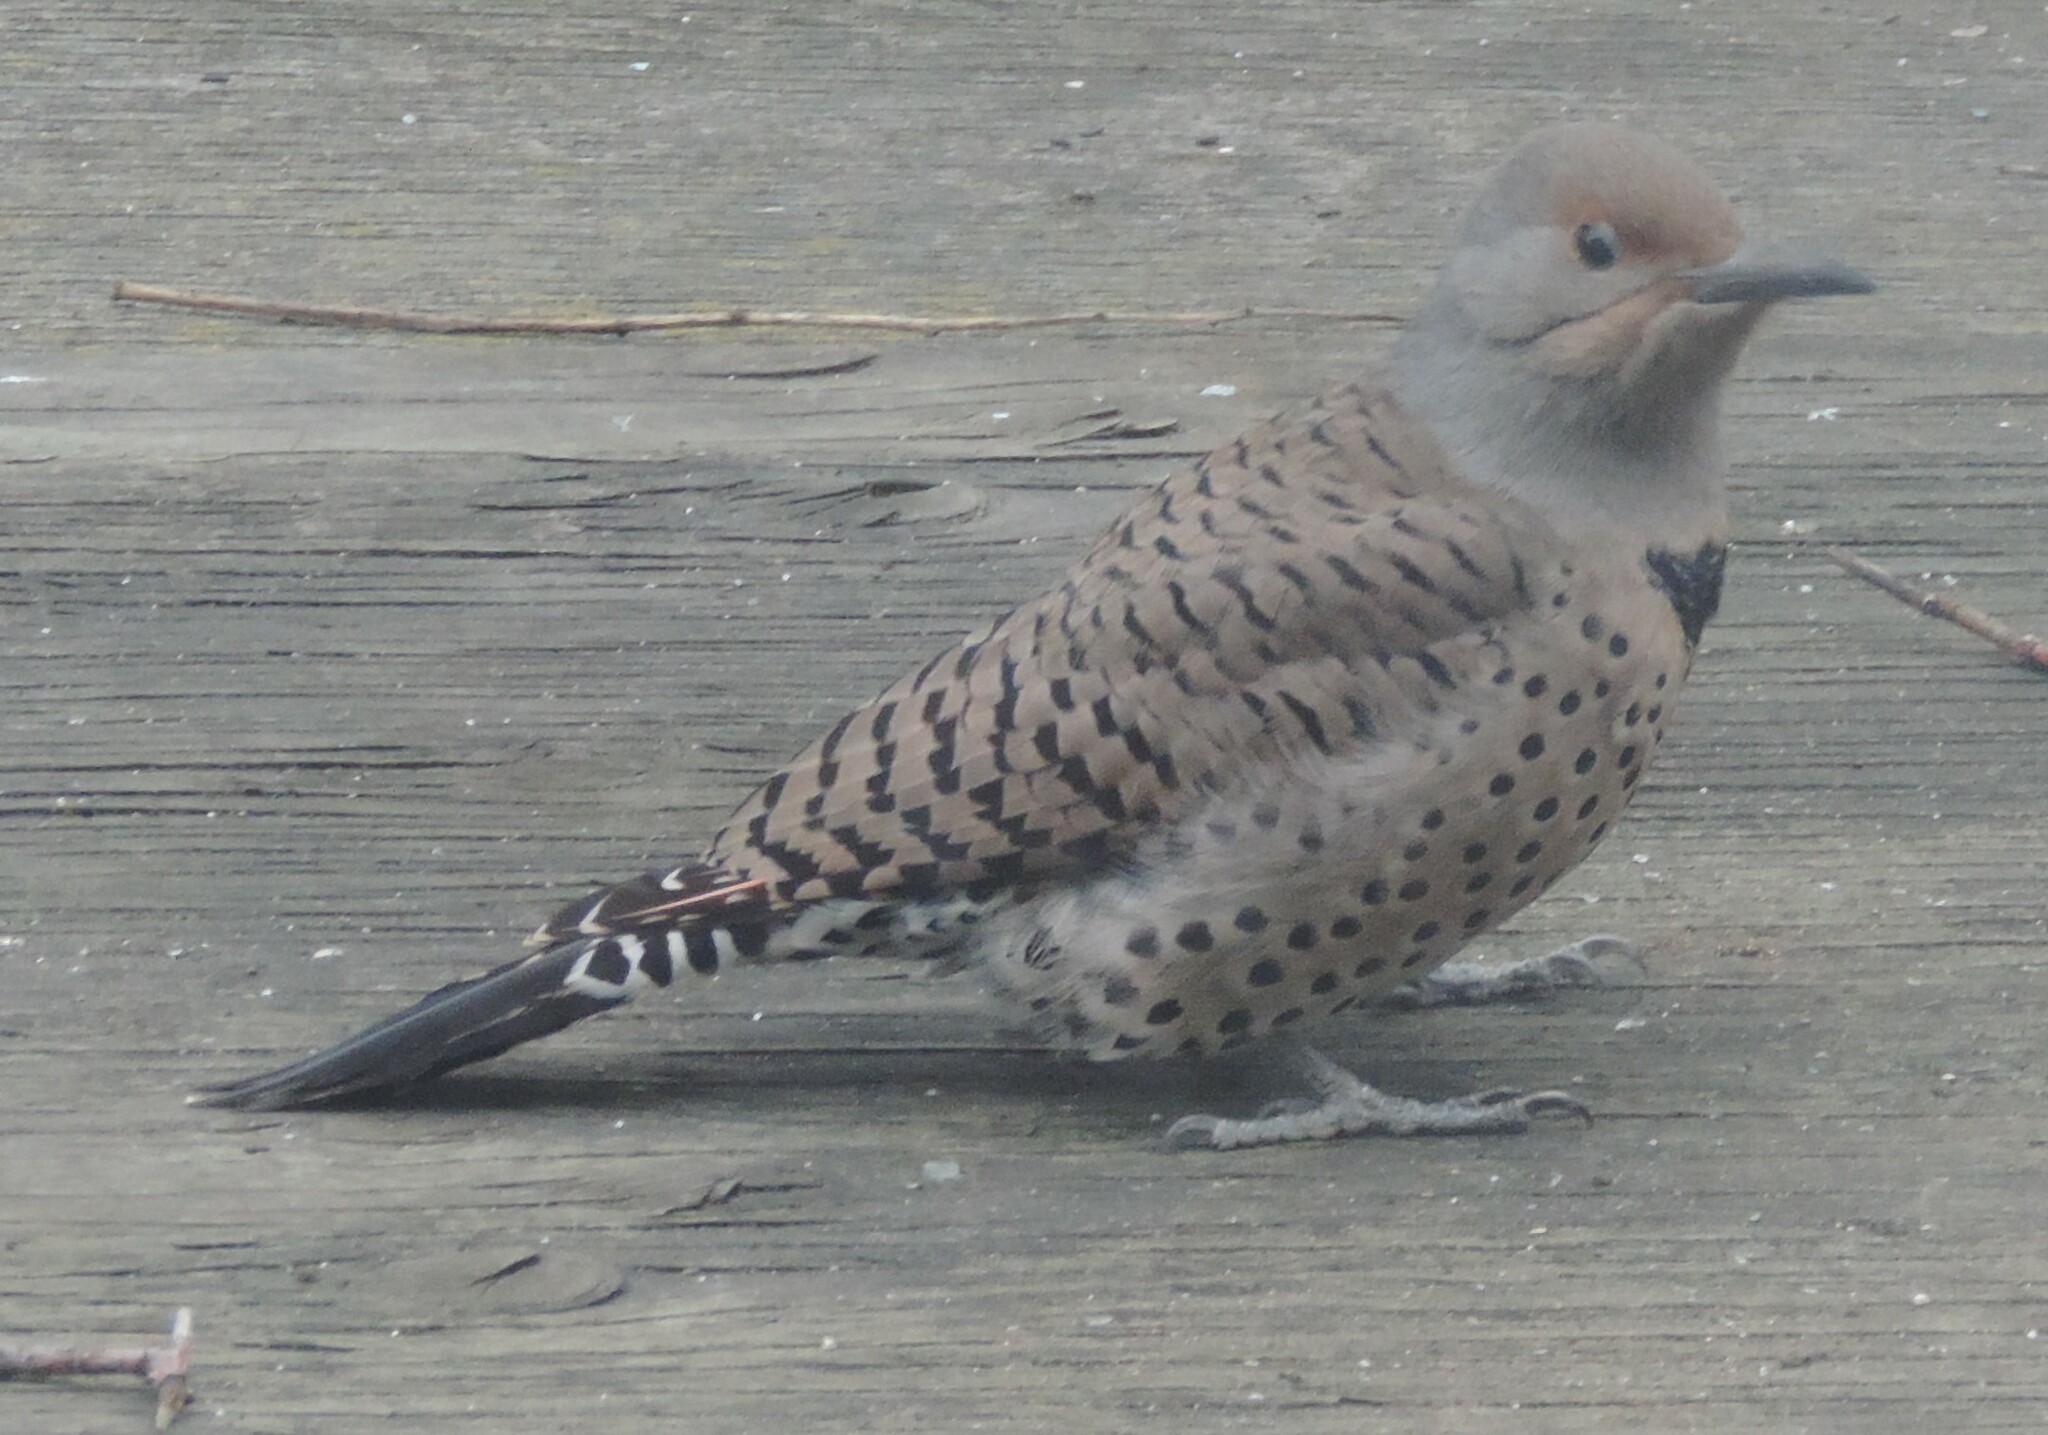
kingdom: Animalia
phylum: Chordata
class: Aves
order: Piciformes
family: Picidae
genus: Colaptes
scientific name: Colaptes auratus
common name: Northern flicker
